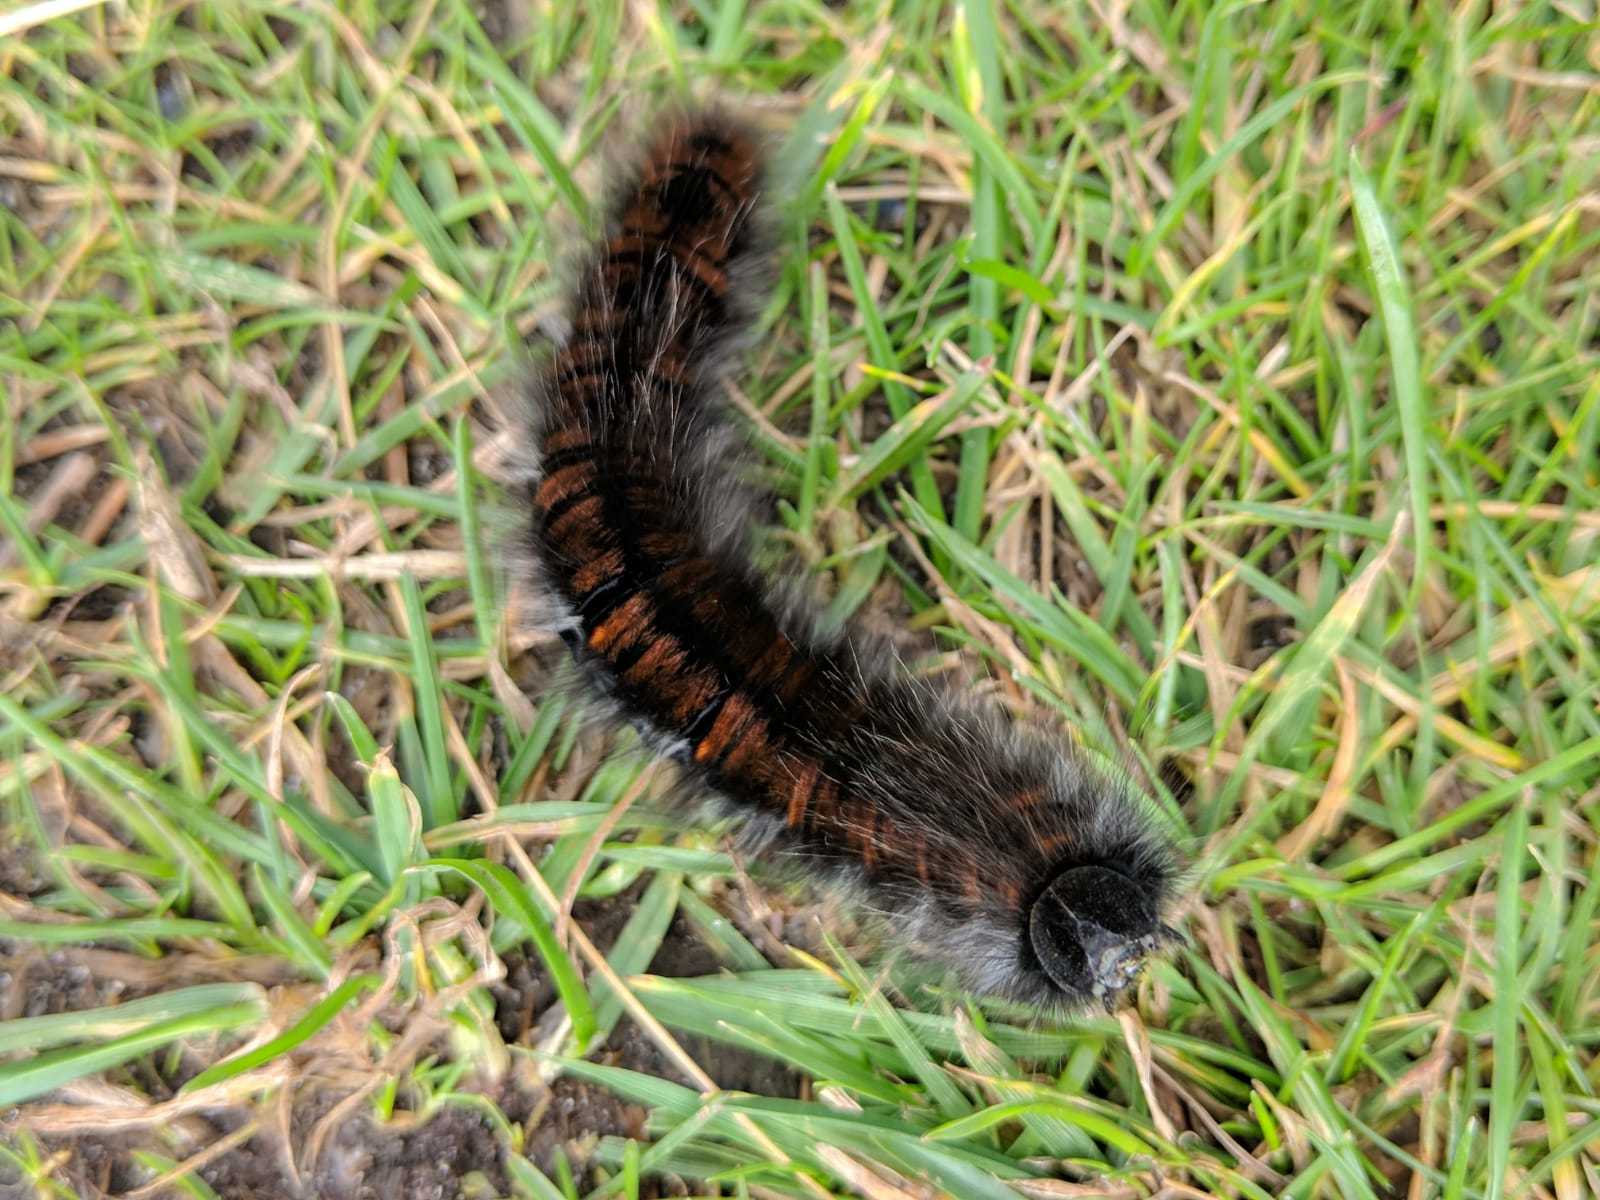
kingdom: Animalia
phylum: Arthropoda
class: Insecta
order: Lepidoptera
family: Lasiocampidae
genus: Macrothylacia
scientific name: Macrothylacia rubi
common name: Fox moth
